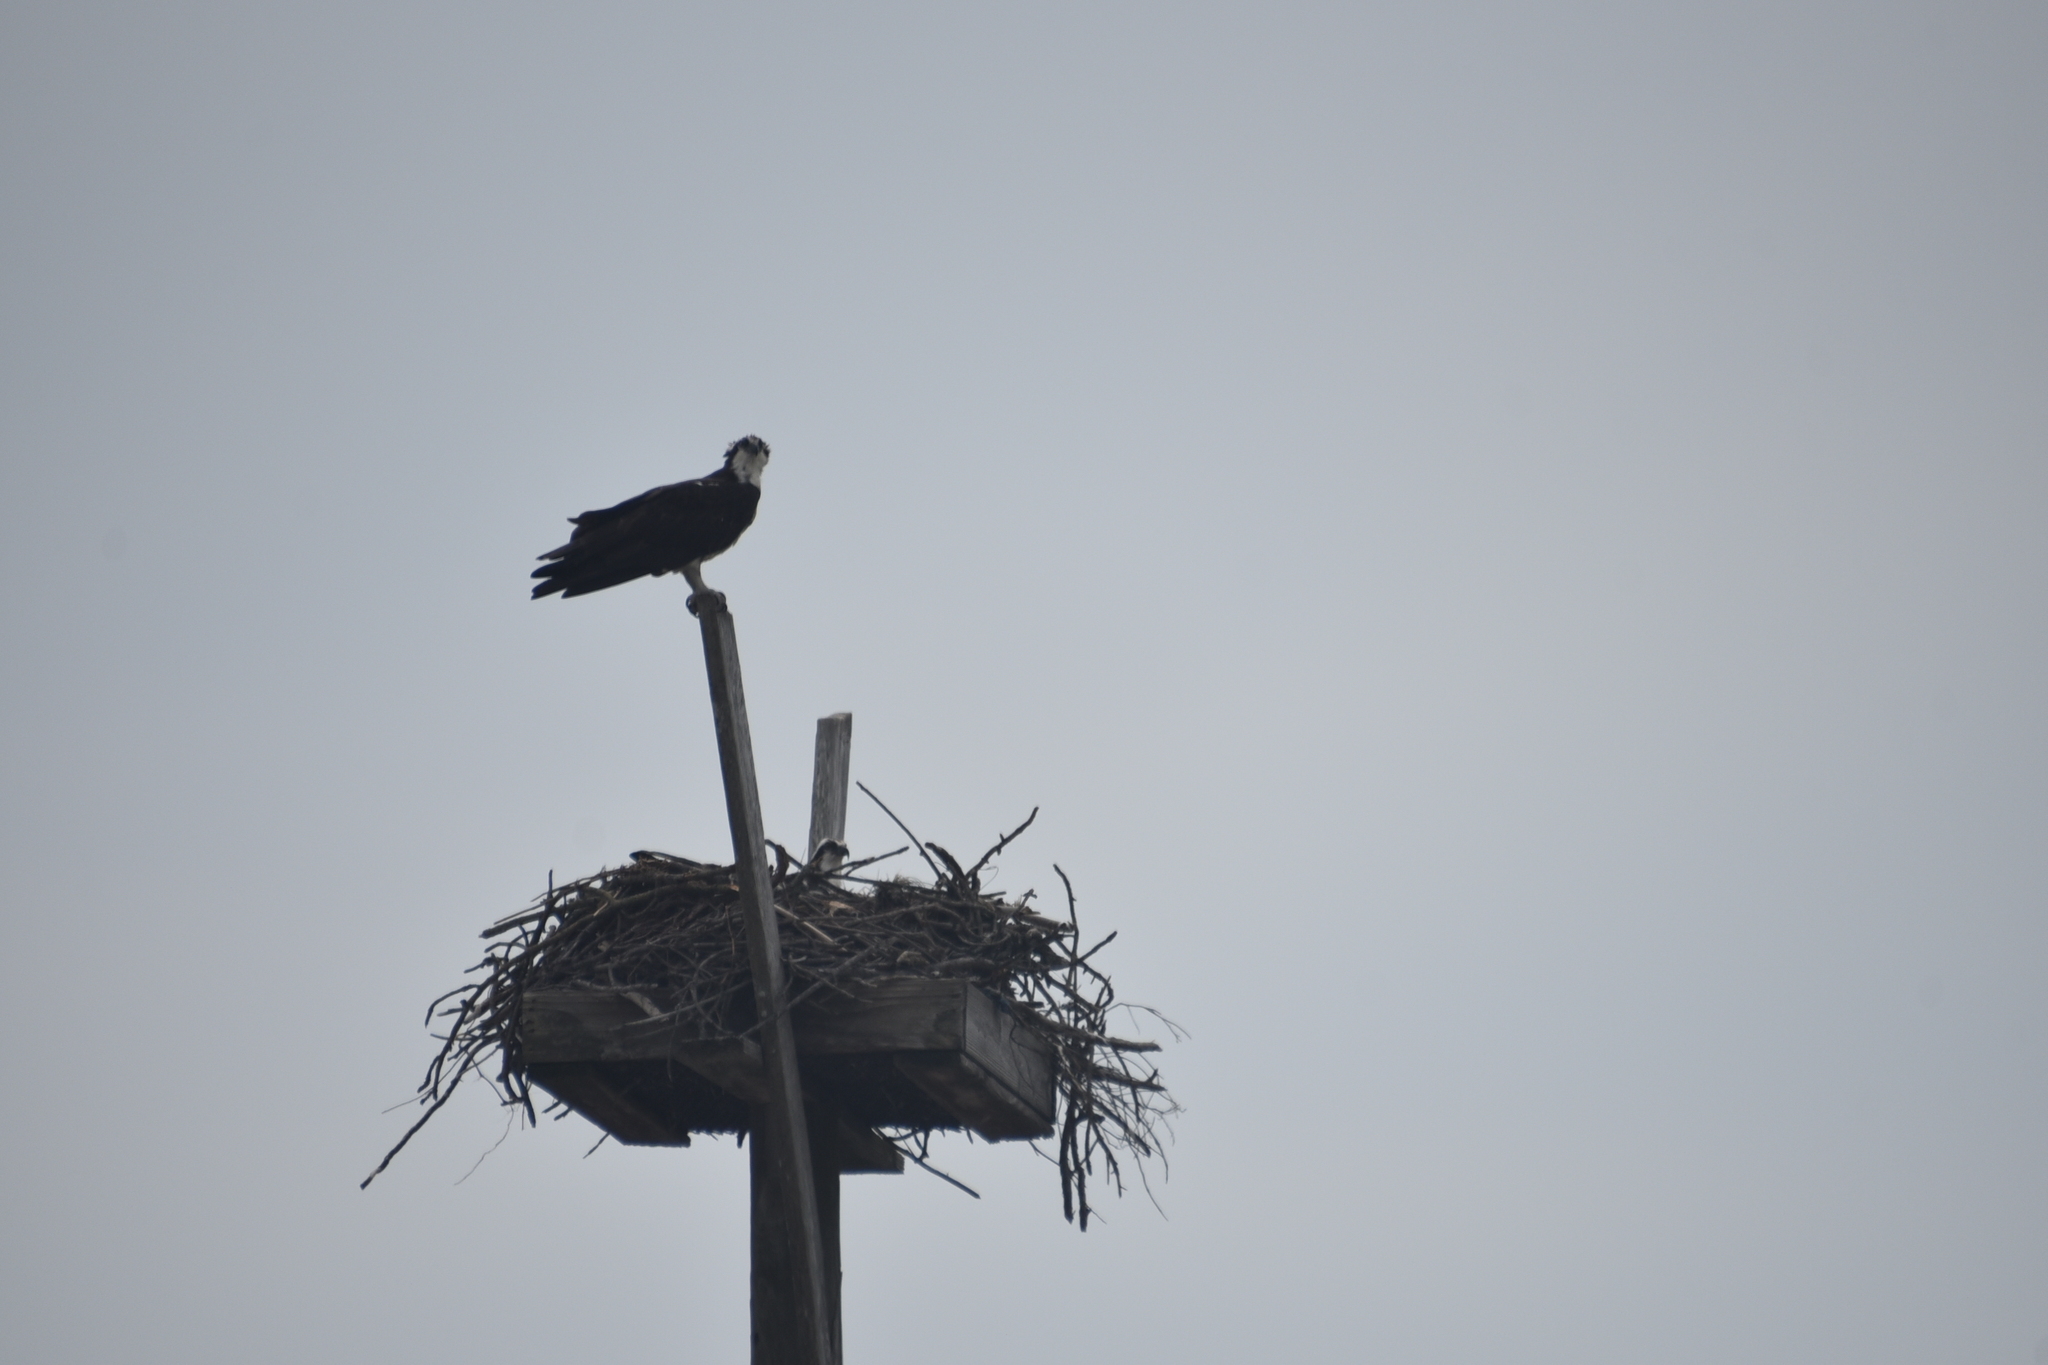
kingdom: Animalia
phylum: Chordata
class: Aves
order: Accipitriformes
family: Pandionidae
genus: Pandion
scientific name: Pandion haliaetus
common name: Osprey
